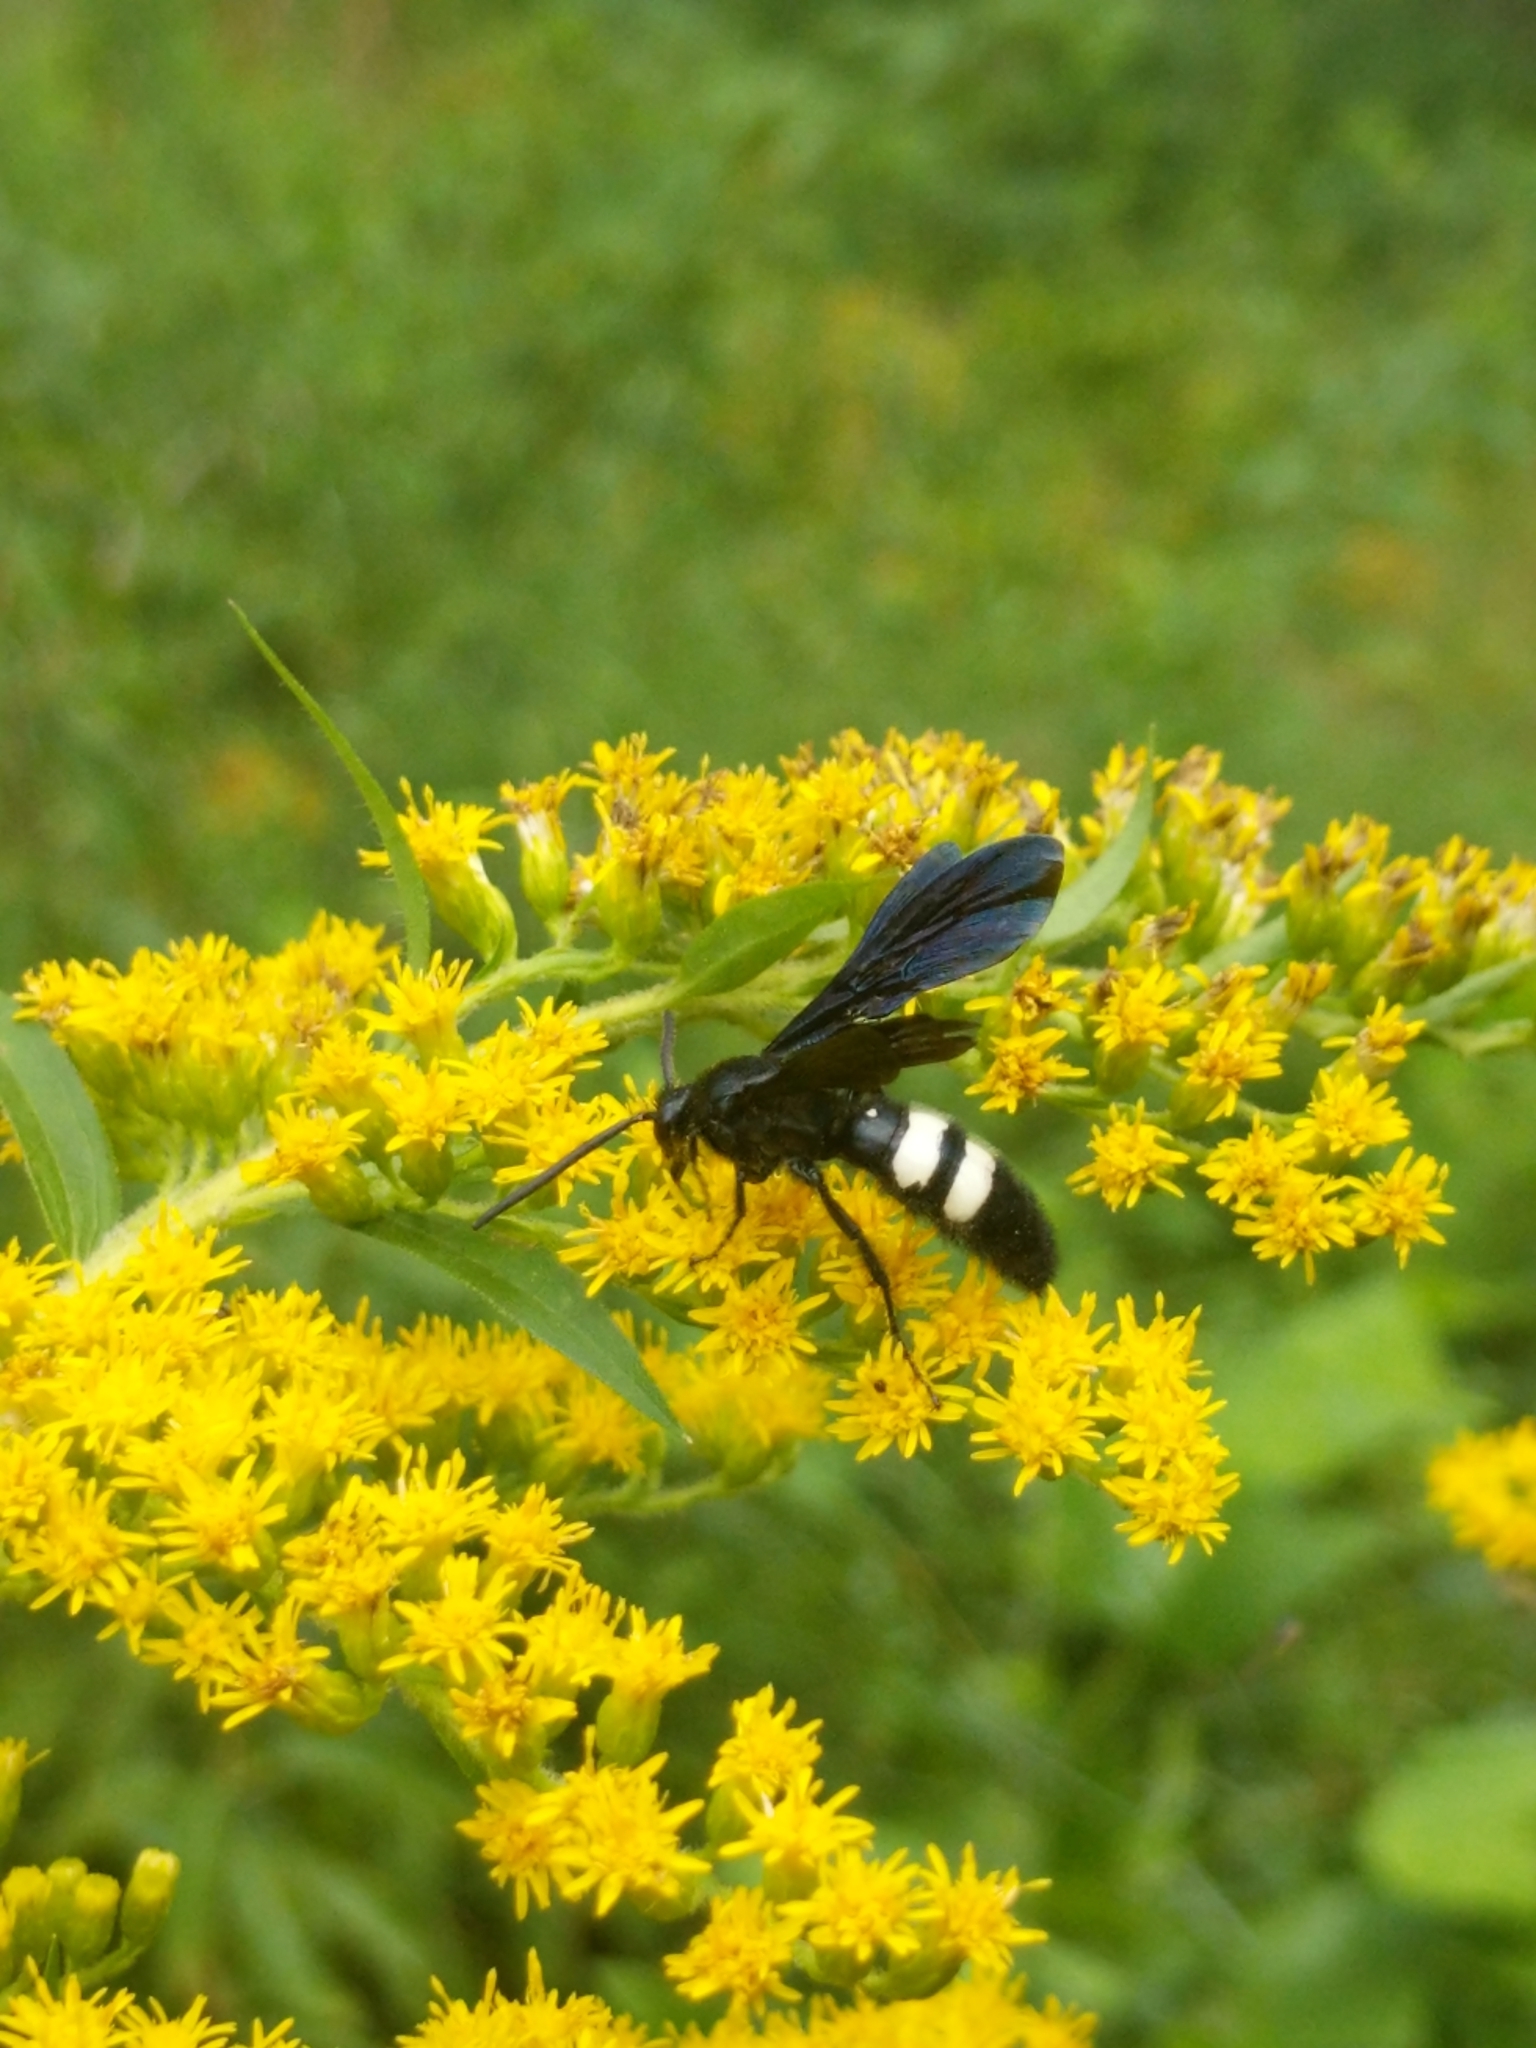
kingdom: Animalia
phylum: Arthropoda
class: Insecta
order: Hymenoptera
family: Scoliidae
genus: Scolia
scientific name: Scolia bicincta
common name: Double-banded scoliid wasp
